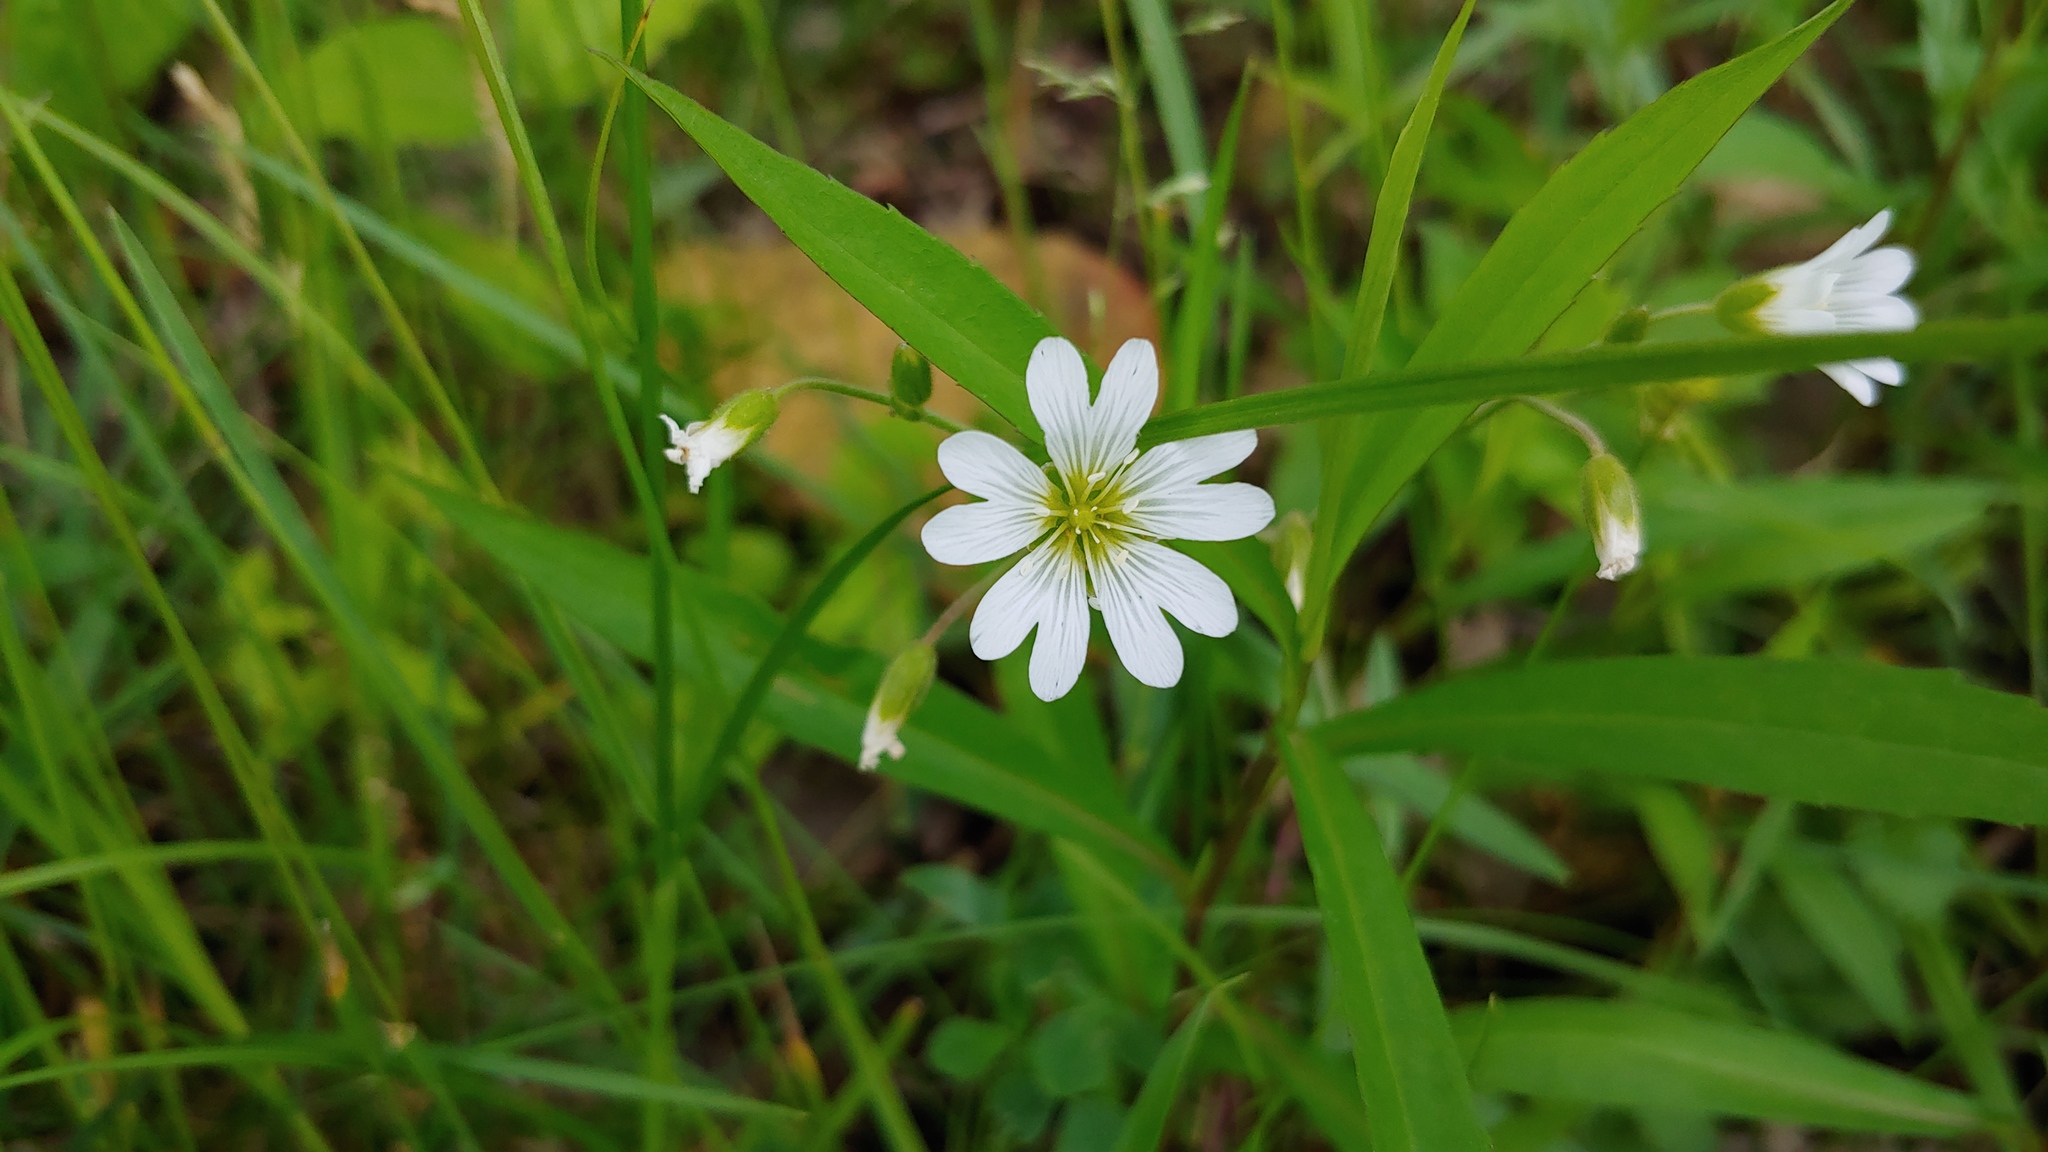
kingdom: Plantae
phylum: Tracheophyta
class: Magnoliopsida
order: Caryophyllales
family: Caryophyllaceae
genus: Cerastium
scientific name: Cerastium velutinum
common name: Barren chickweed
